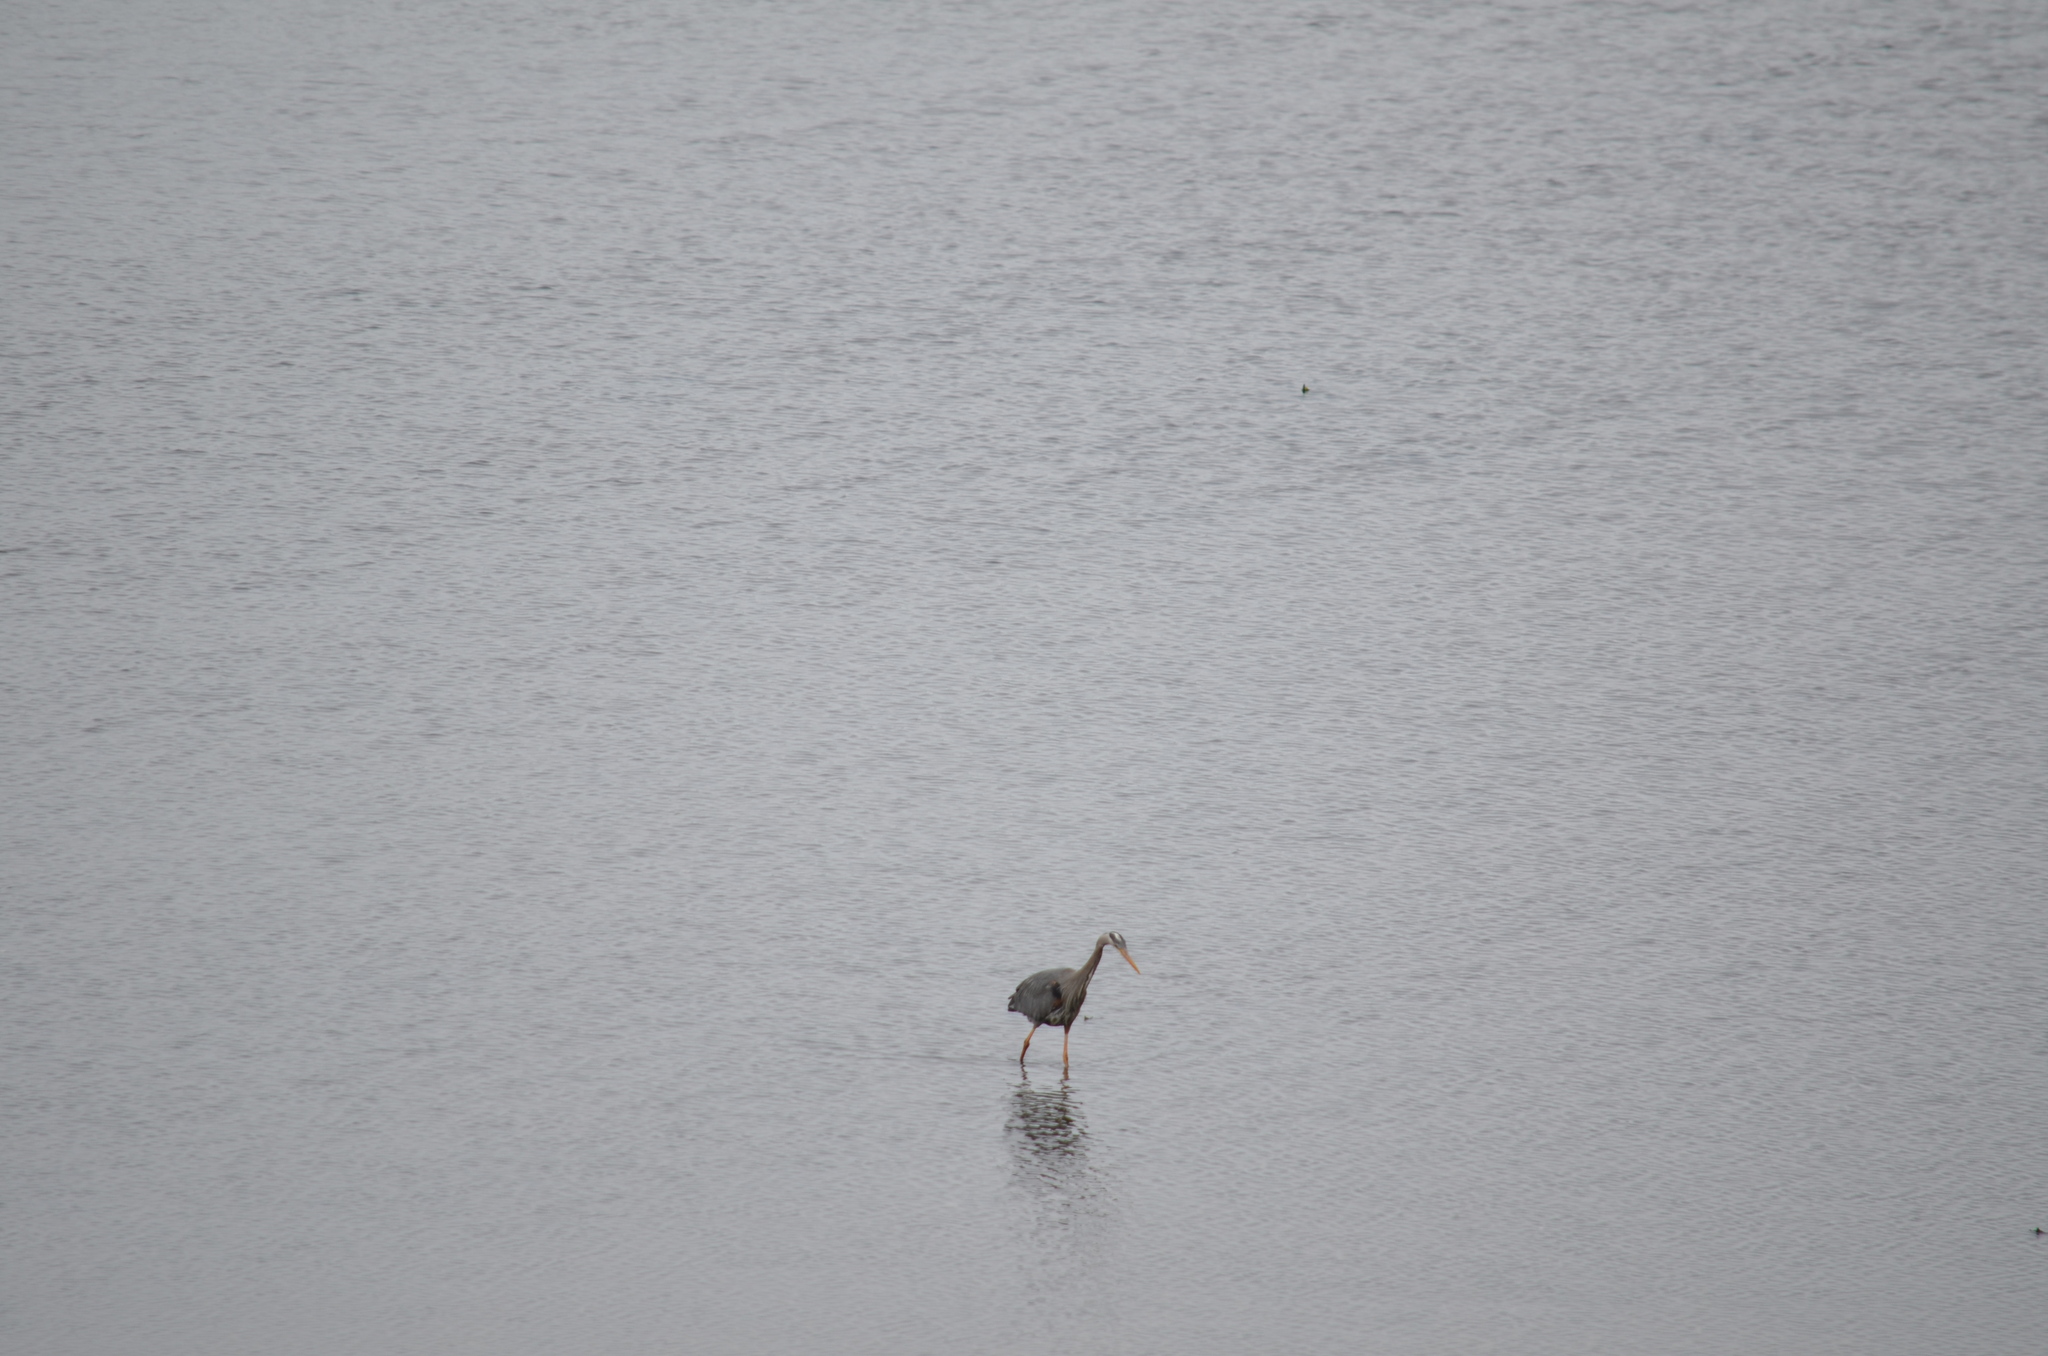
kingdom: Animalia
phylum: Chordata
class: Aves
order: Pelecaniformes
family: Ardeidae
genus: Ardea
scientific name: Ardea herodias
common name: Great blue heron
